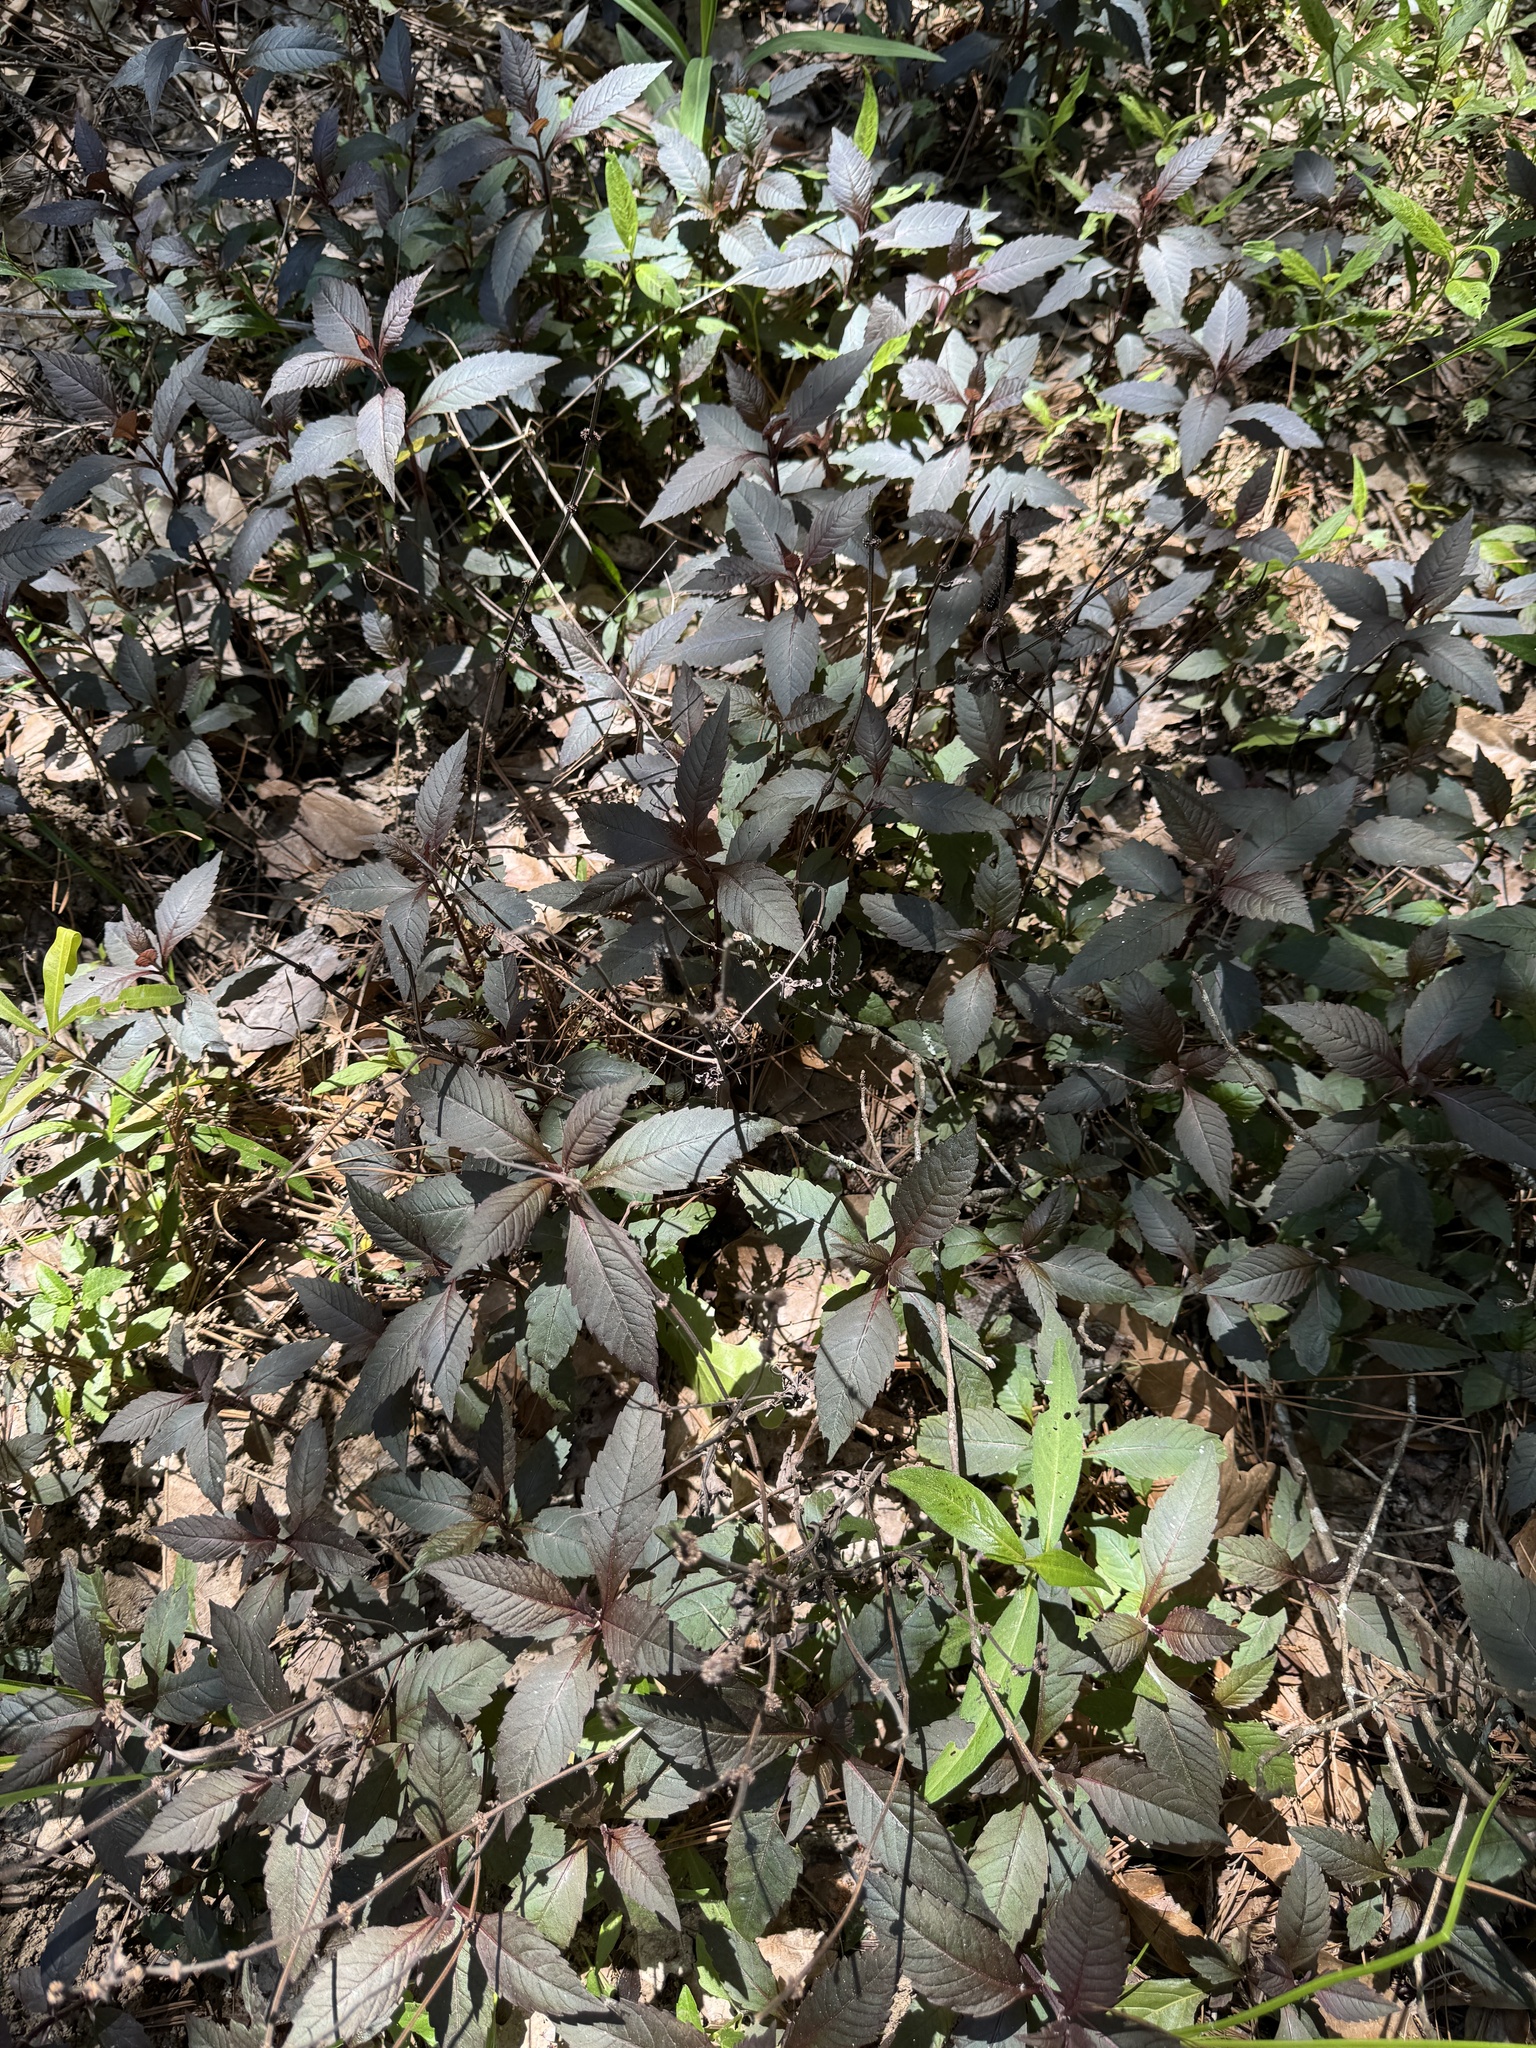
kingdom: Plantae
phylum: Tracheophyta
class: Magnoliopsida
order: Lamiales
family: Lamiaceae
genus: Lycopus
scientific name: Lycopus virginicus
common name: Bugleweed
